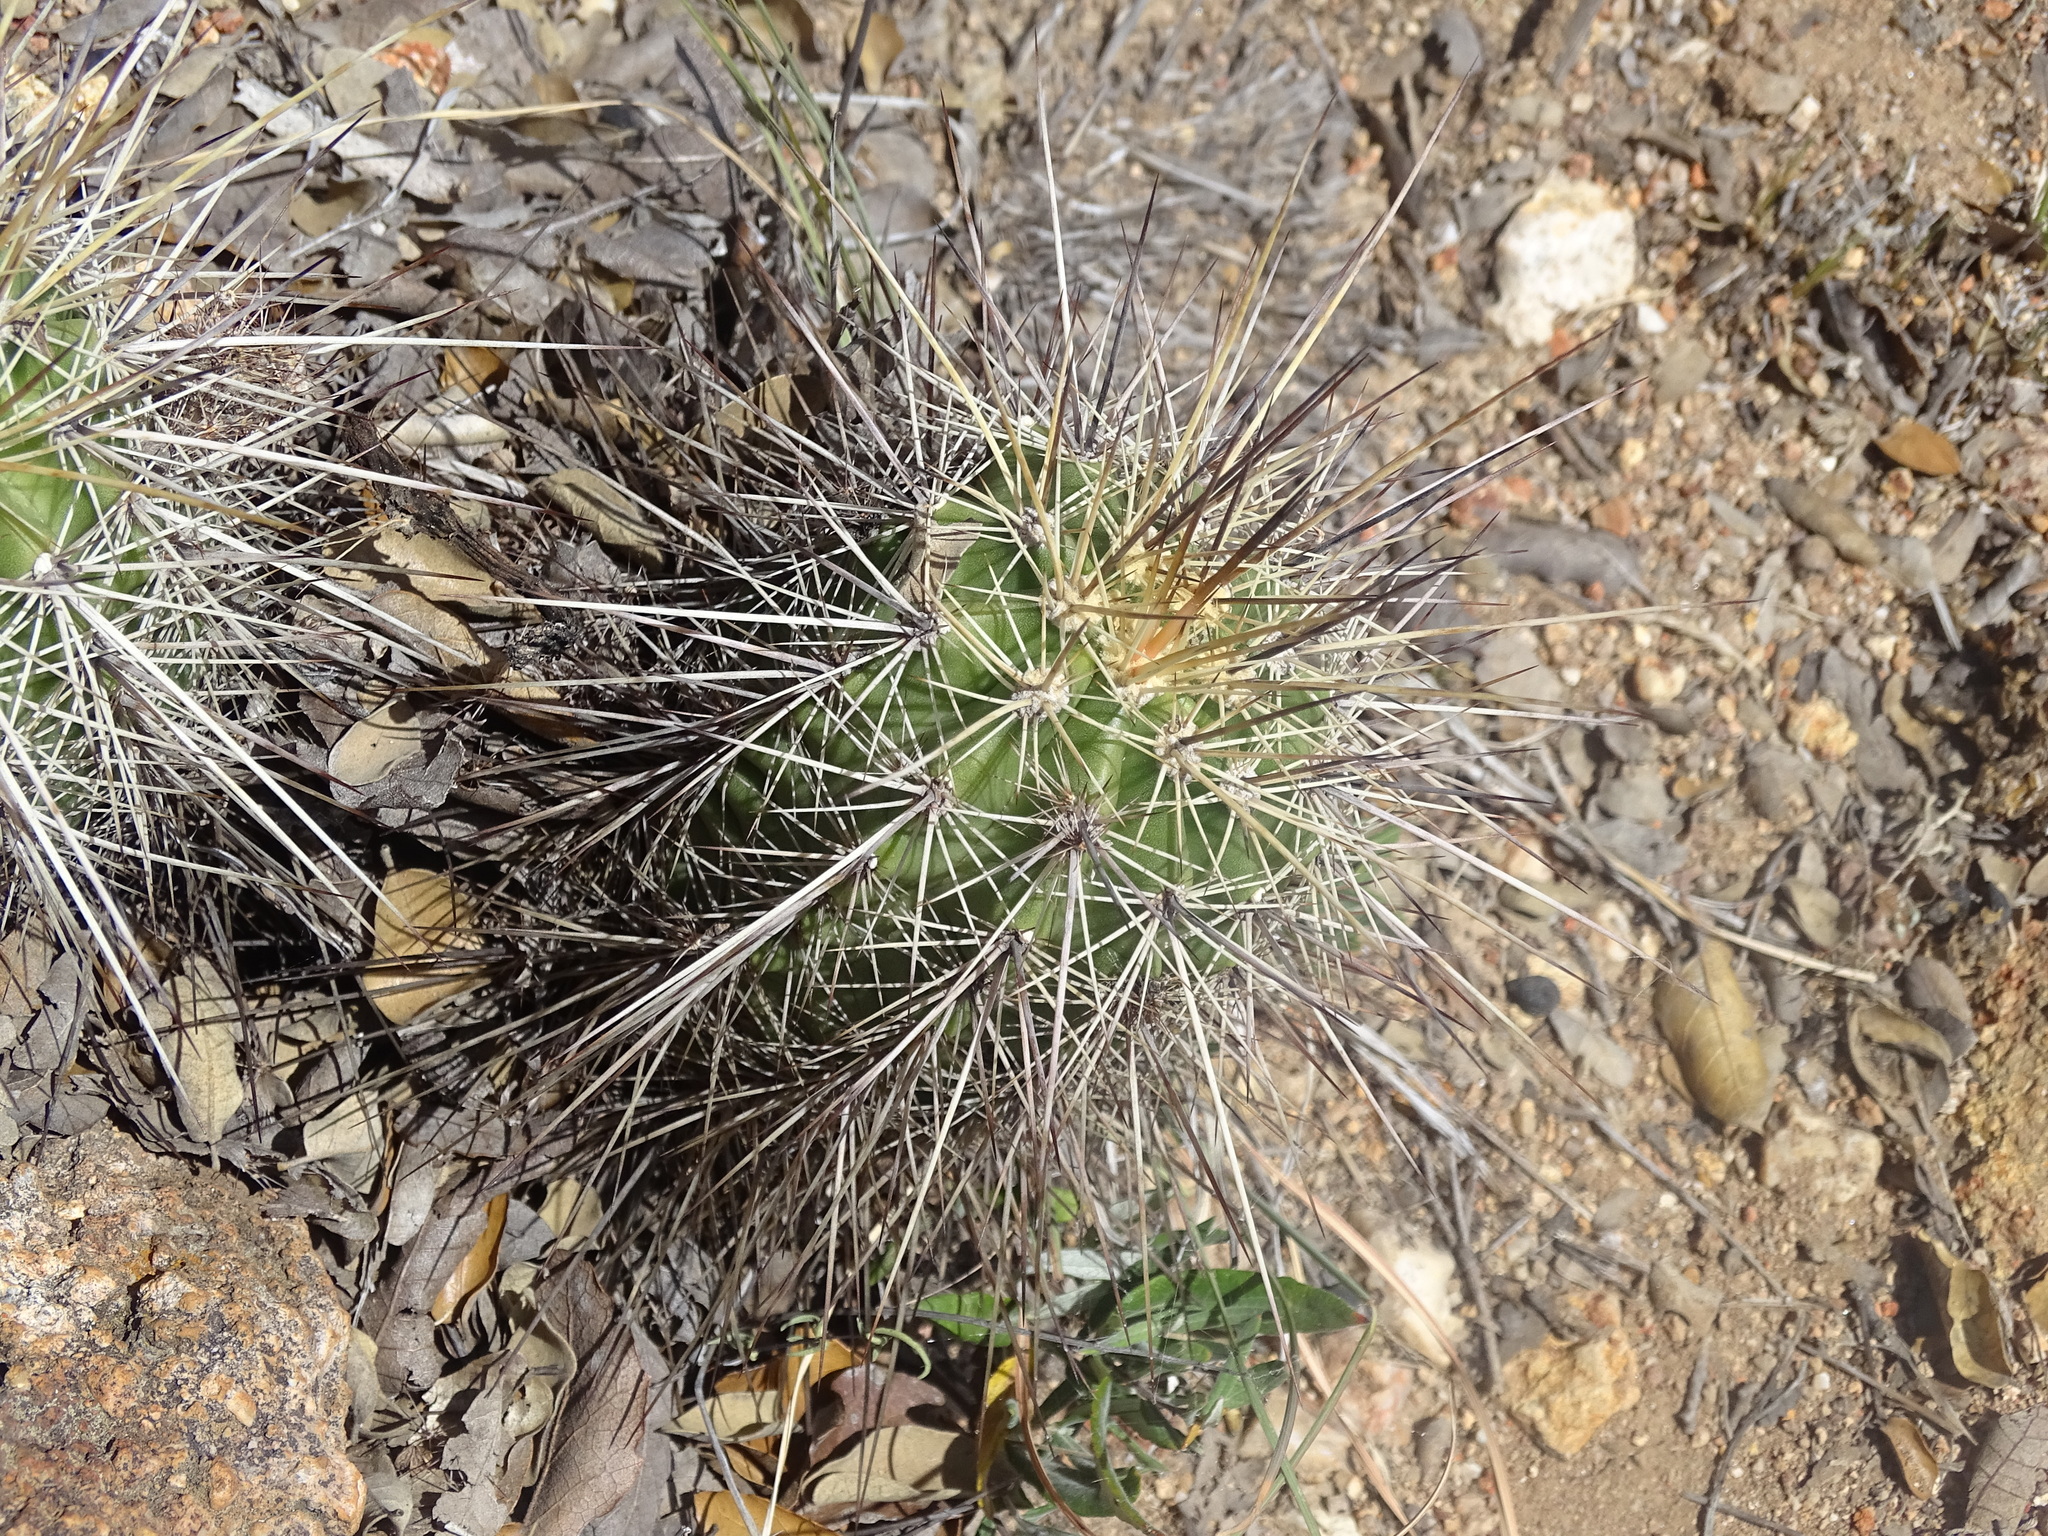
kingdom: Plantae
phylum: Tracheophyta
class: Magnoliopsida
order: Caryophyllales
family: Cactaceae
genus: Echinocereus
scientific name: Echinocereus acifer
